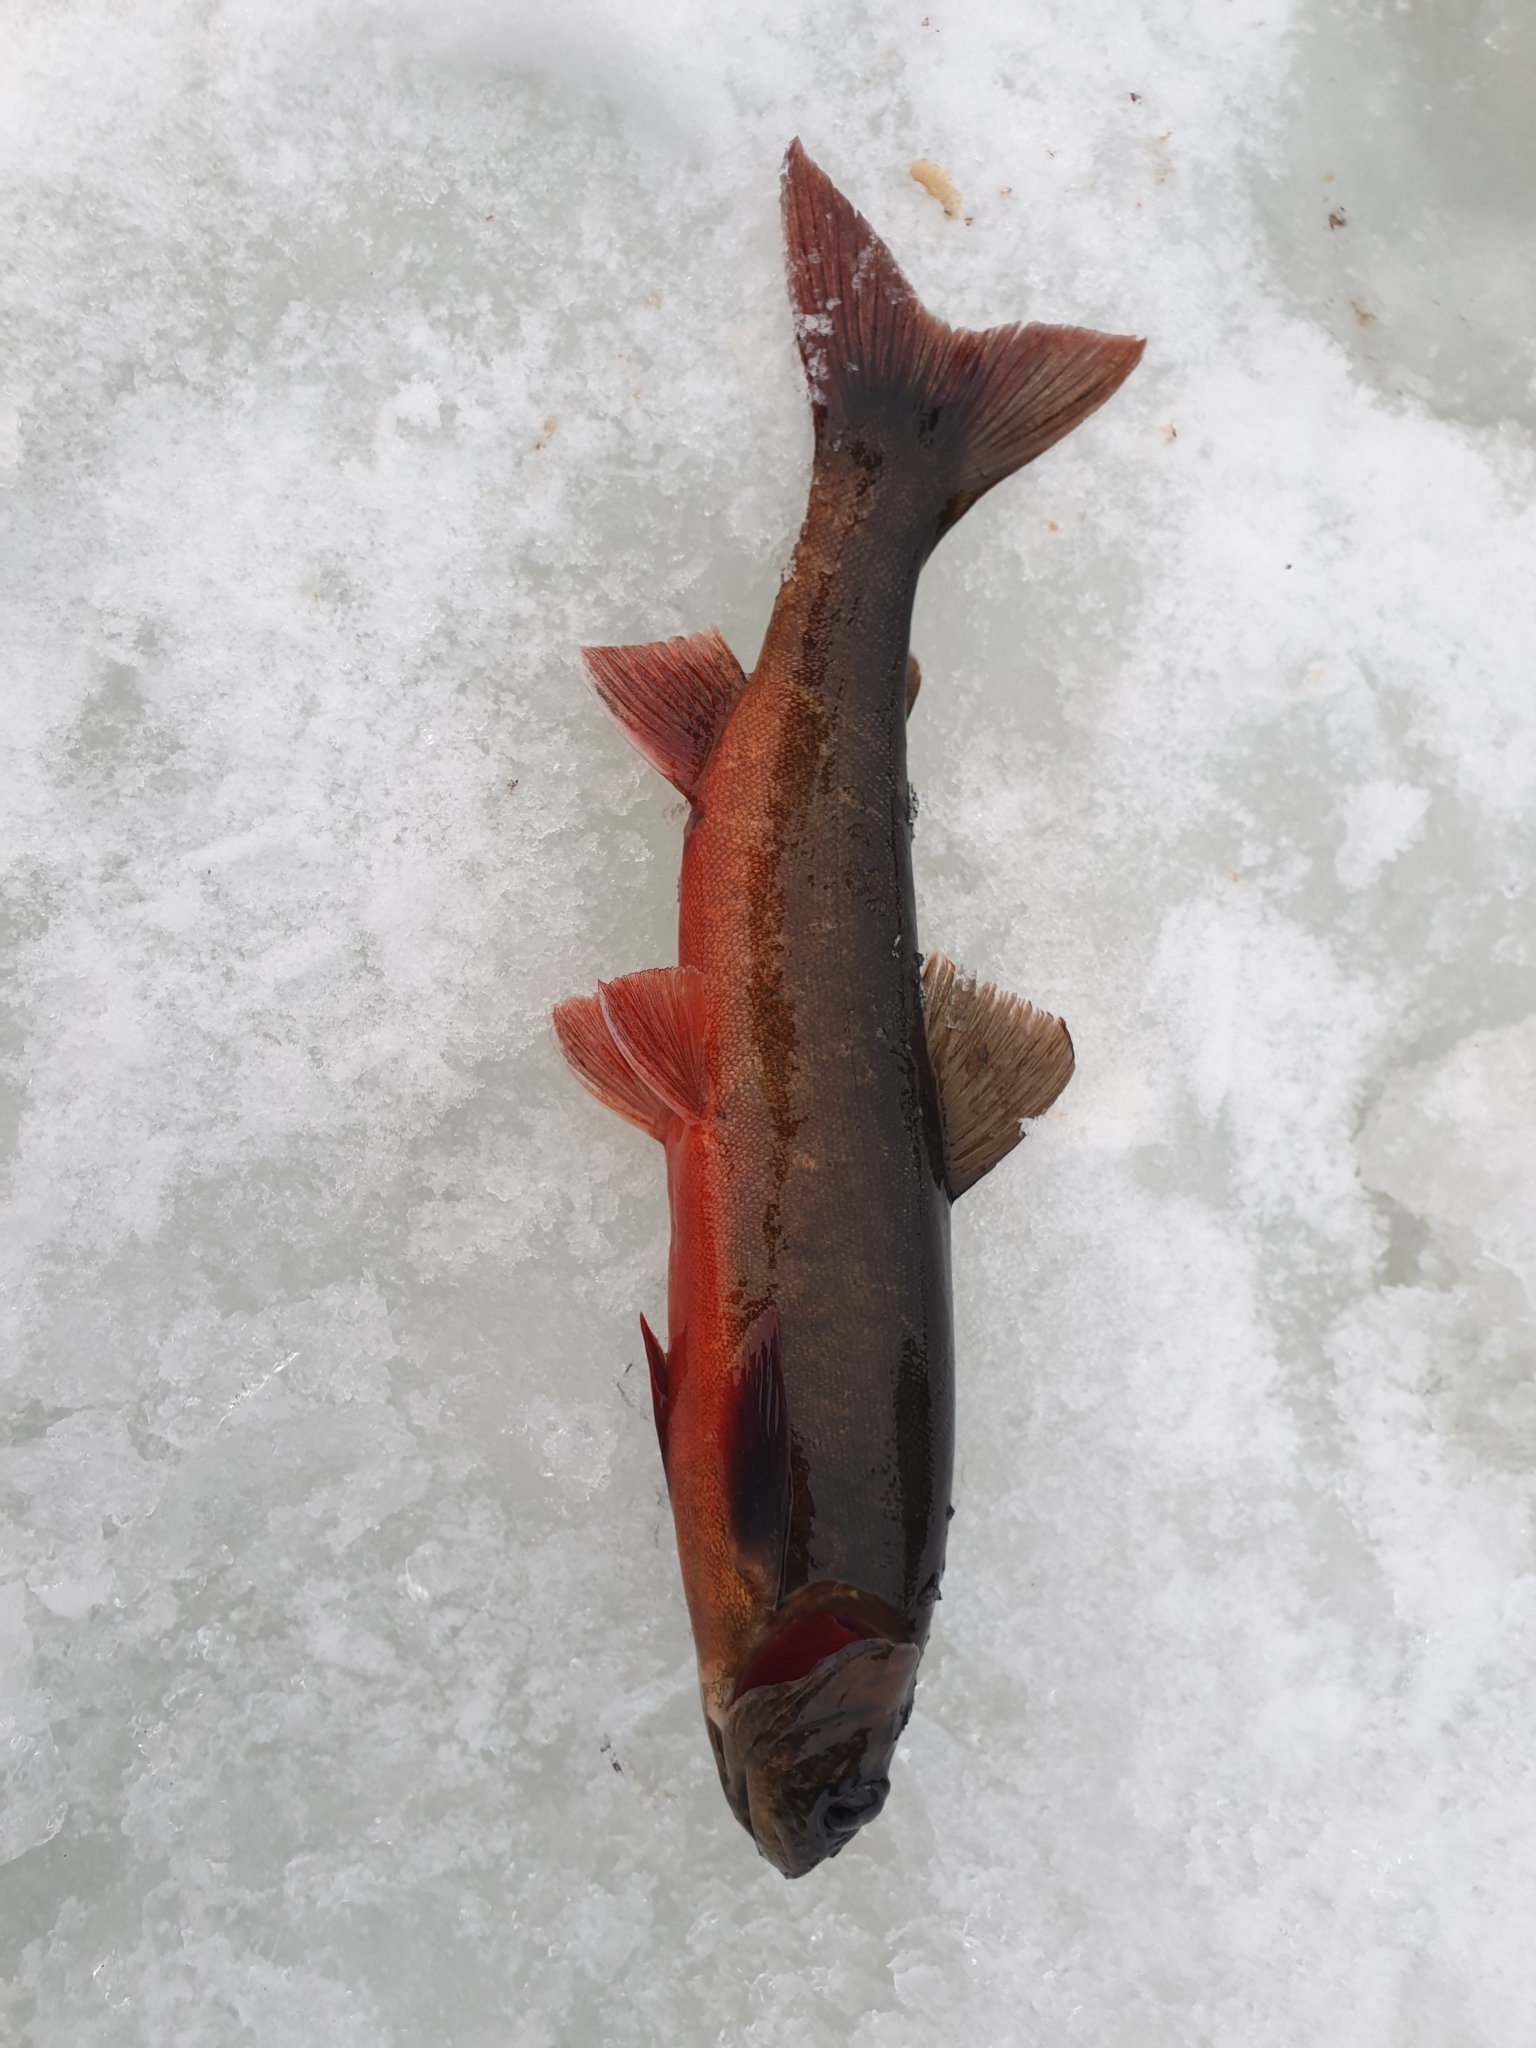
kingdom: Animalia
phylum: Chordata
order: Salmoniformes
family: Salmonidae
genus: Salvelinus
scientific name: Salvelinus alpinus
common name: Charr
